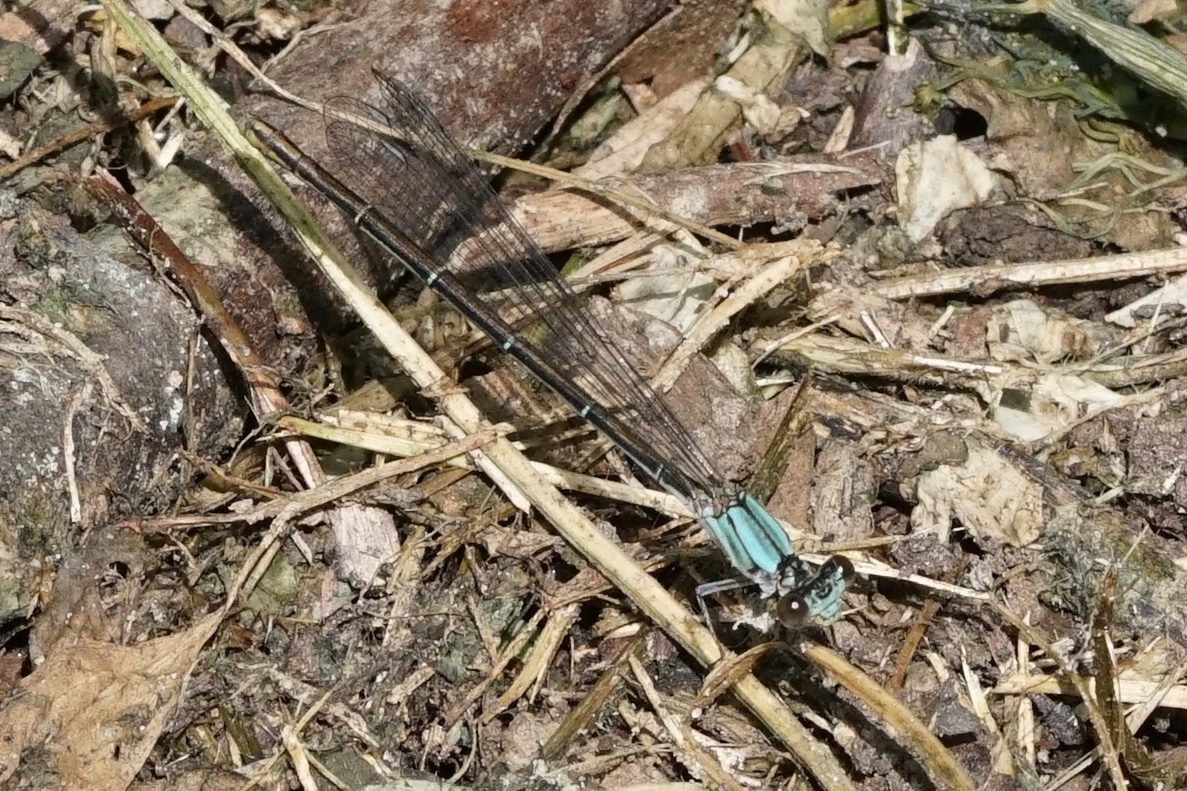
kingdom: Animalia
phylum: Arthropoda
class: Insecta
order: Odonata
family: Coenagrionidae
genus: Argia
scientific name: Argia moesta
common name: Powdered dancer
